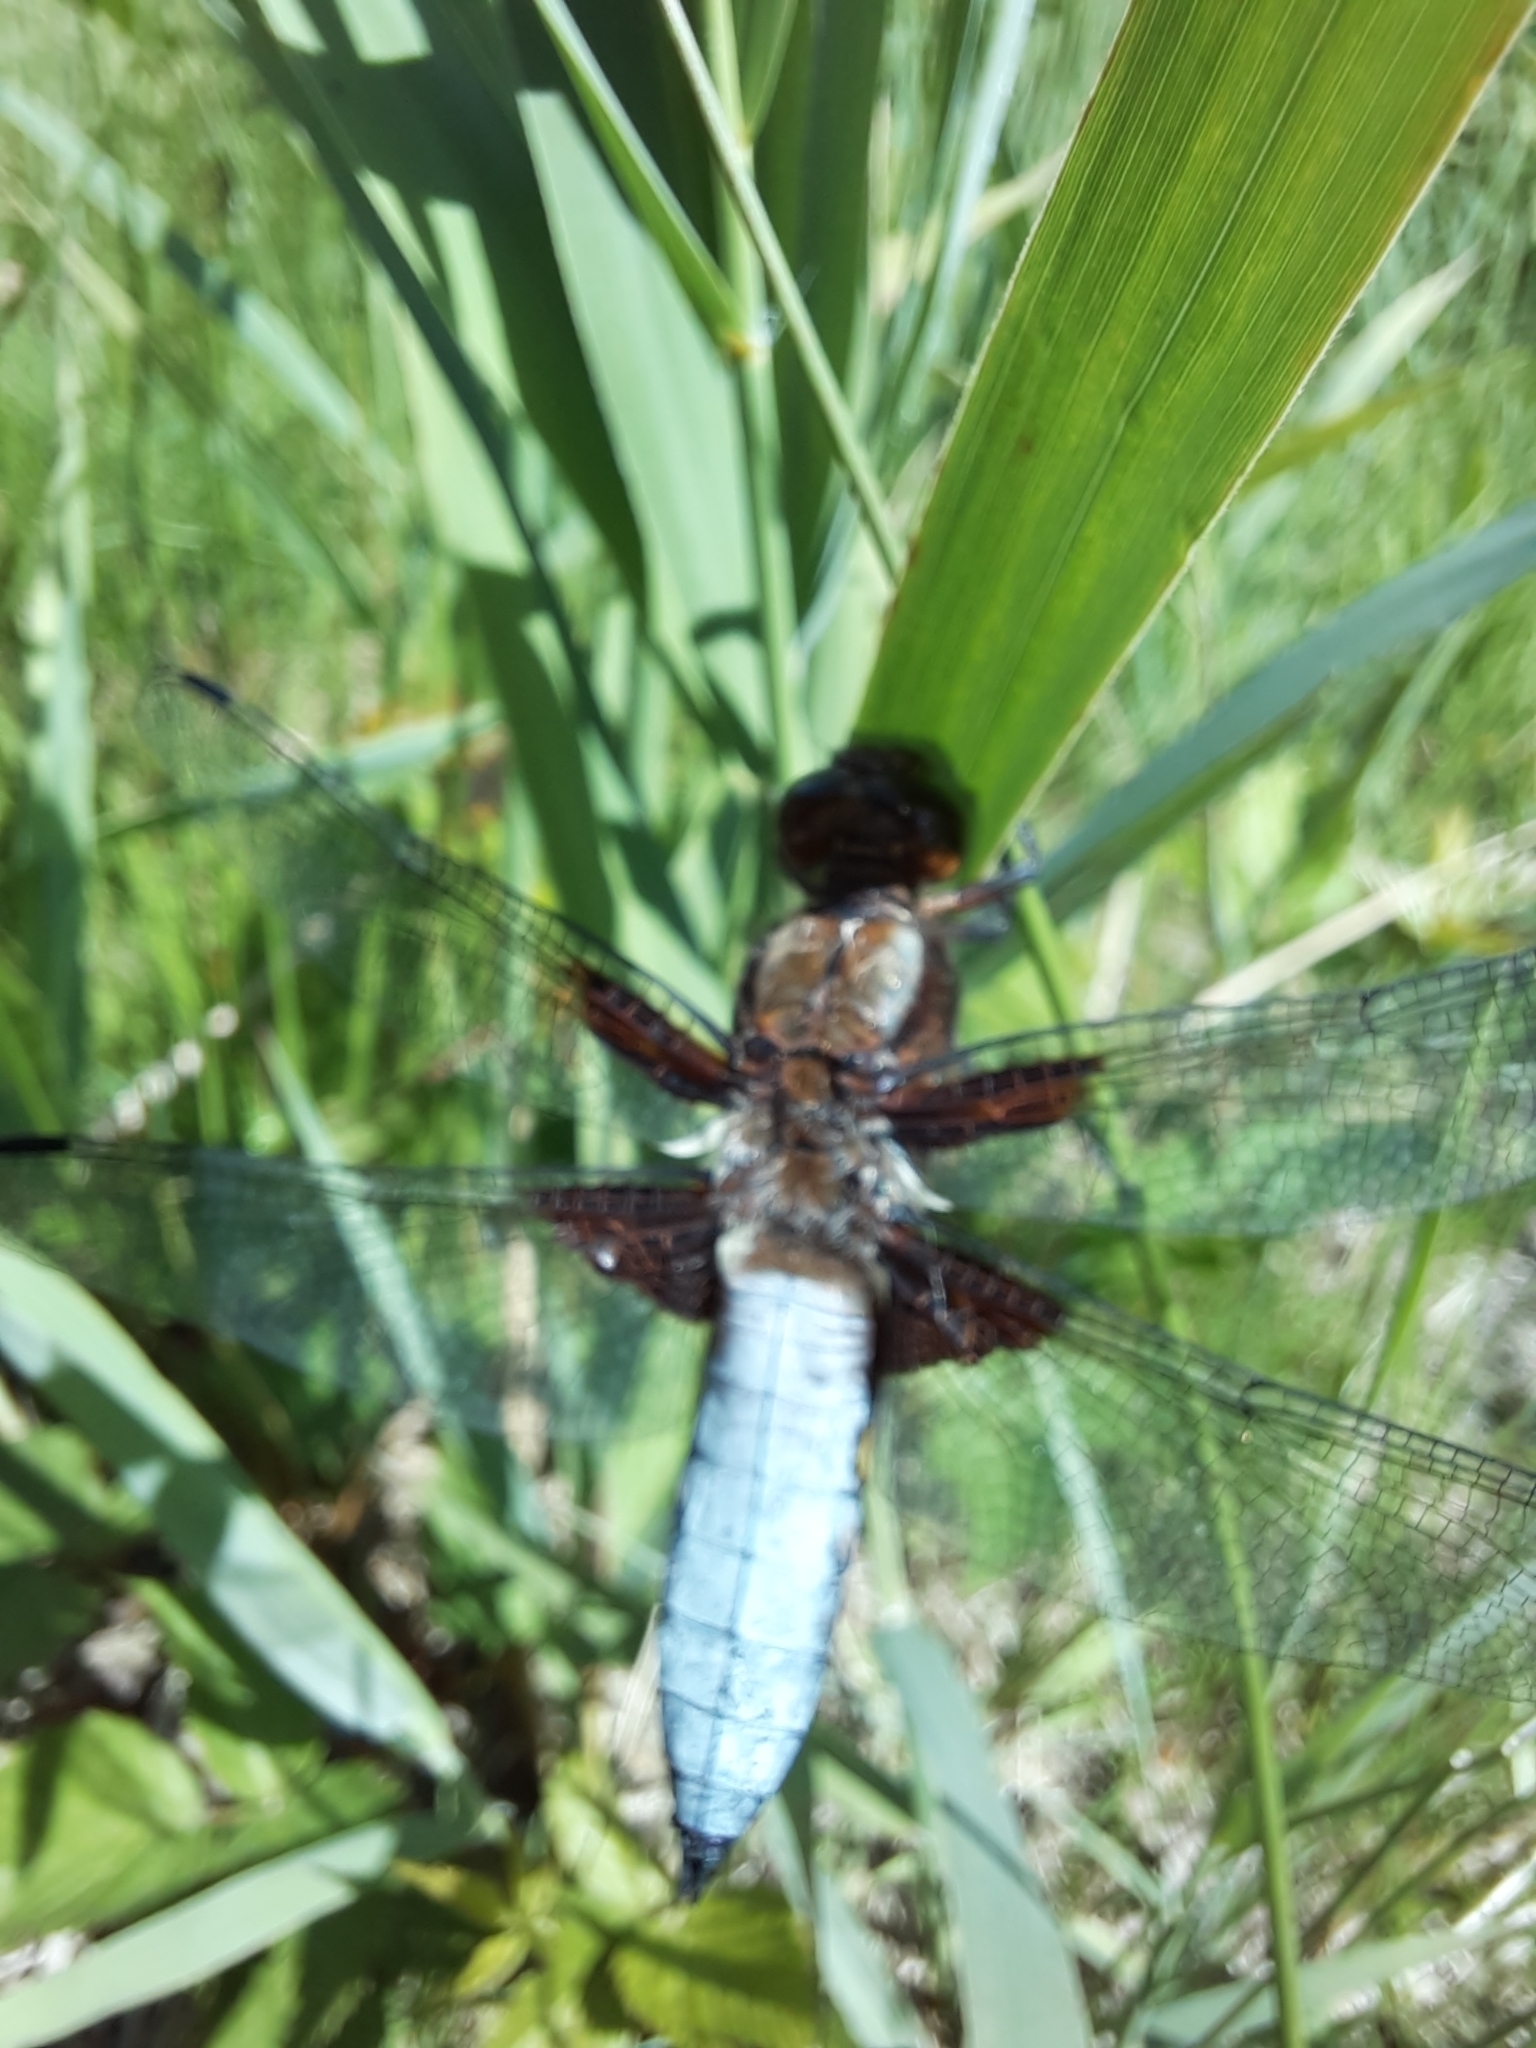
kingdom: Animalia
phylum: Arthropoda
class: Insecta
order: Odonata
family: Libellulidae
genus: Libellula
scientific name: Libellula depressa
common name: Broad-bodied chaser
